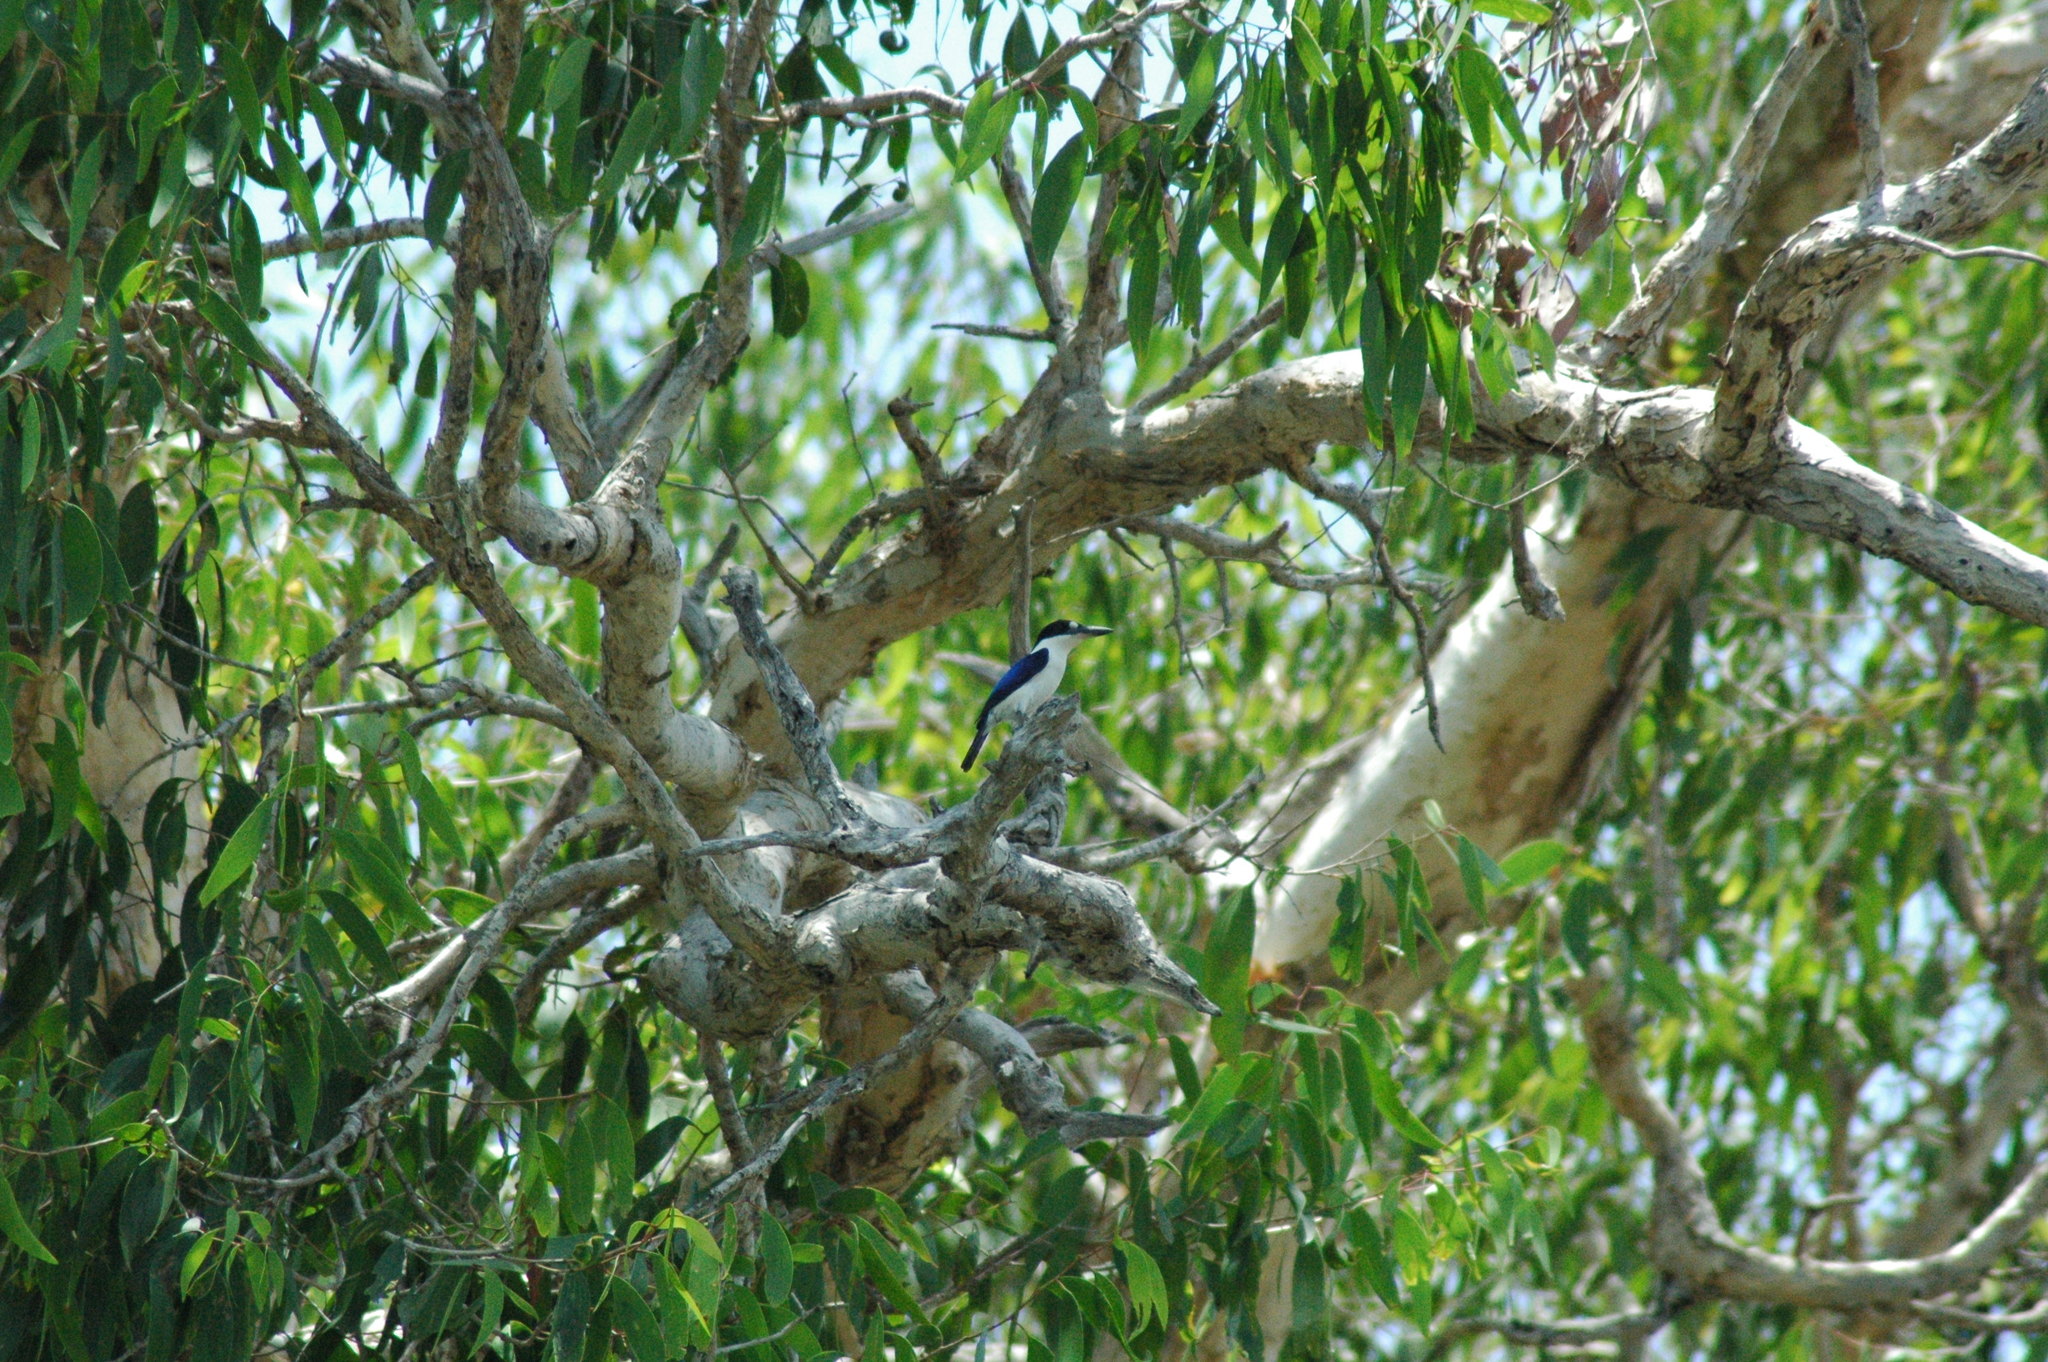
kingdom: Animalia
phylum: Chordata
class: Aves
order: Coraciiformes
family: Alcedinidae
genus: Todiramphus
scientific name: Todiramphus macleayii
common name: Forest kingfisher
